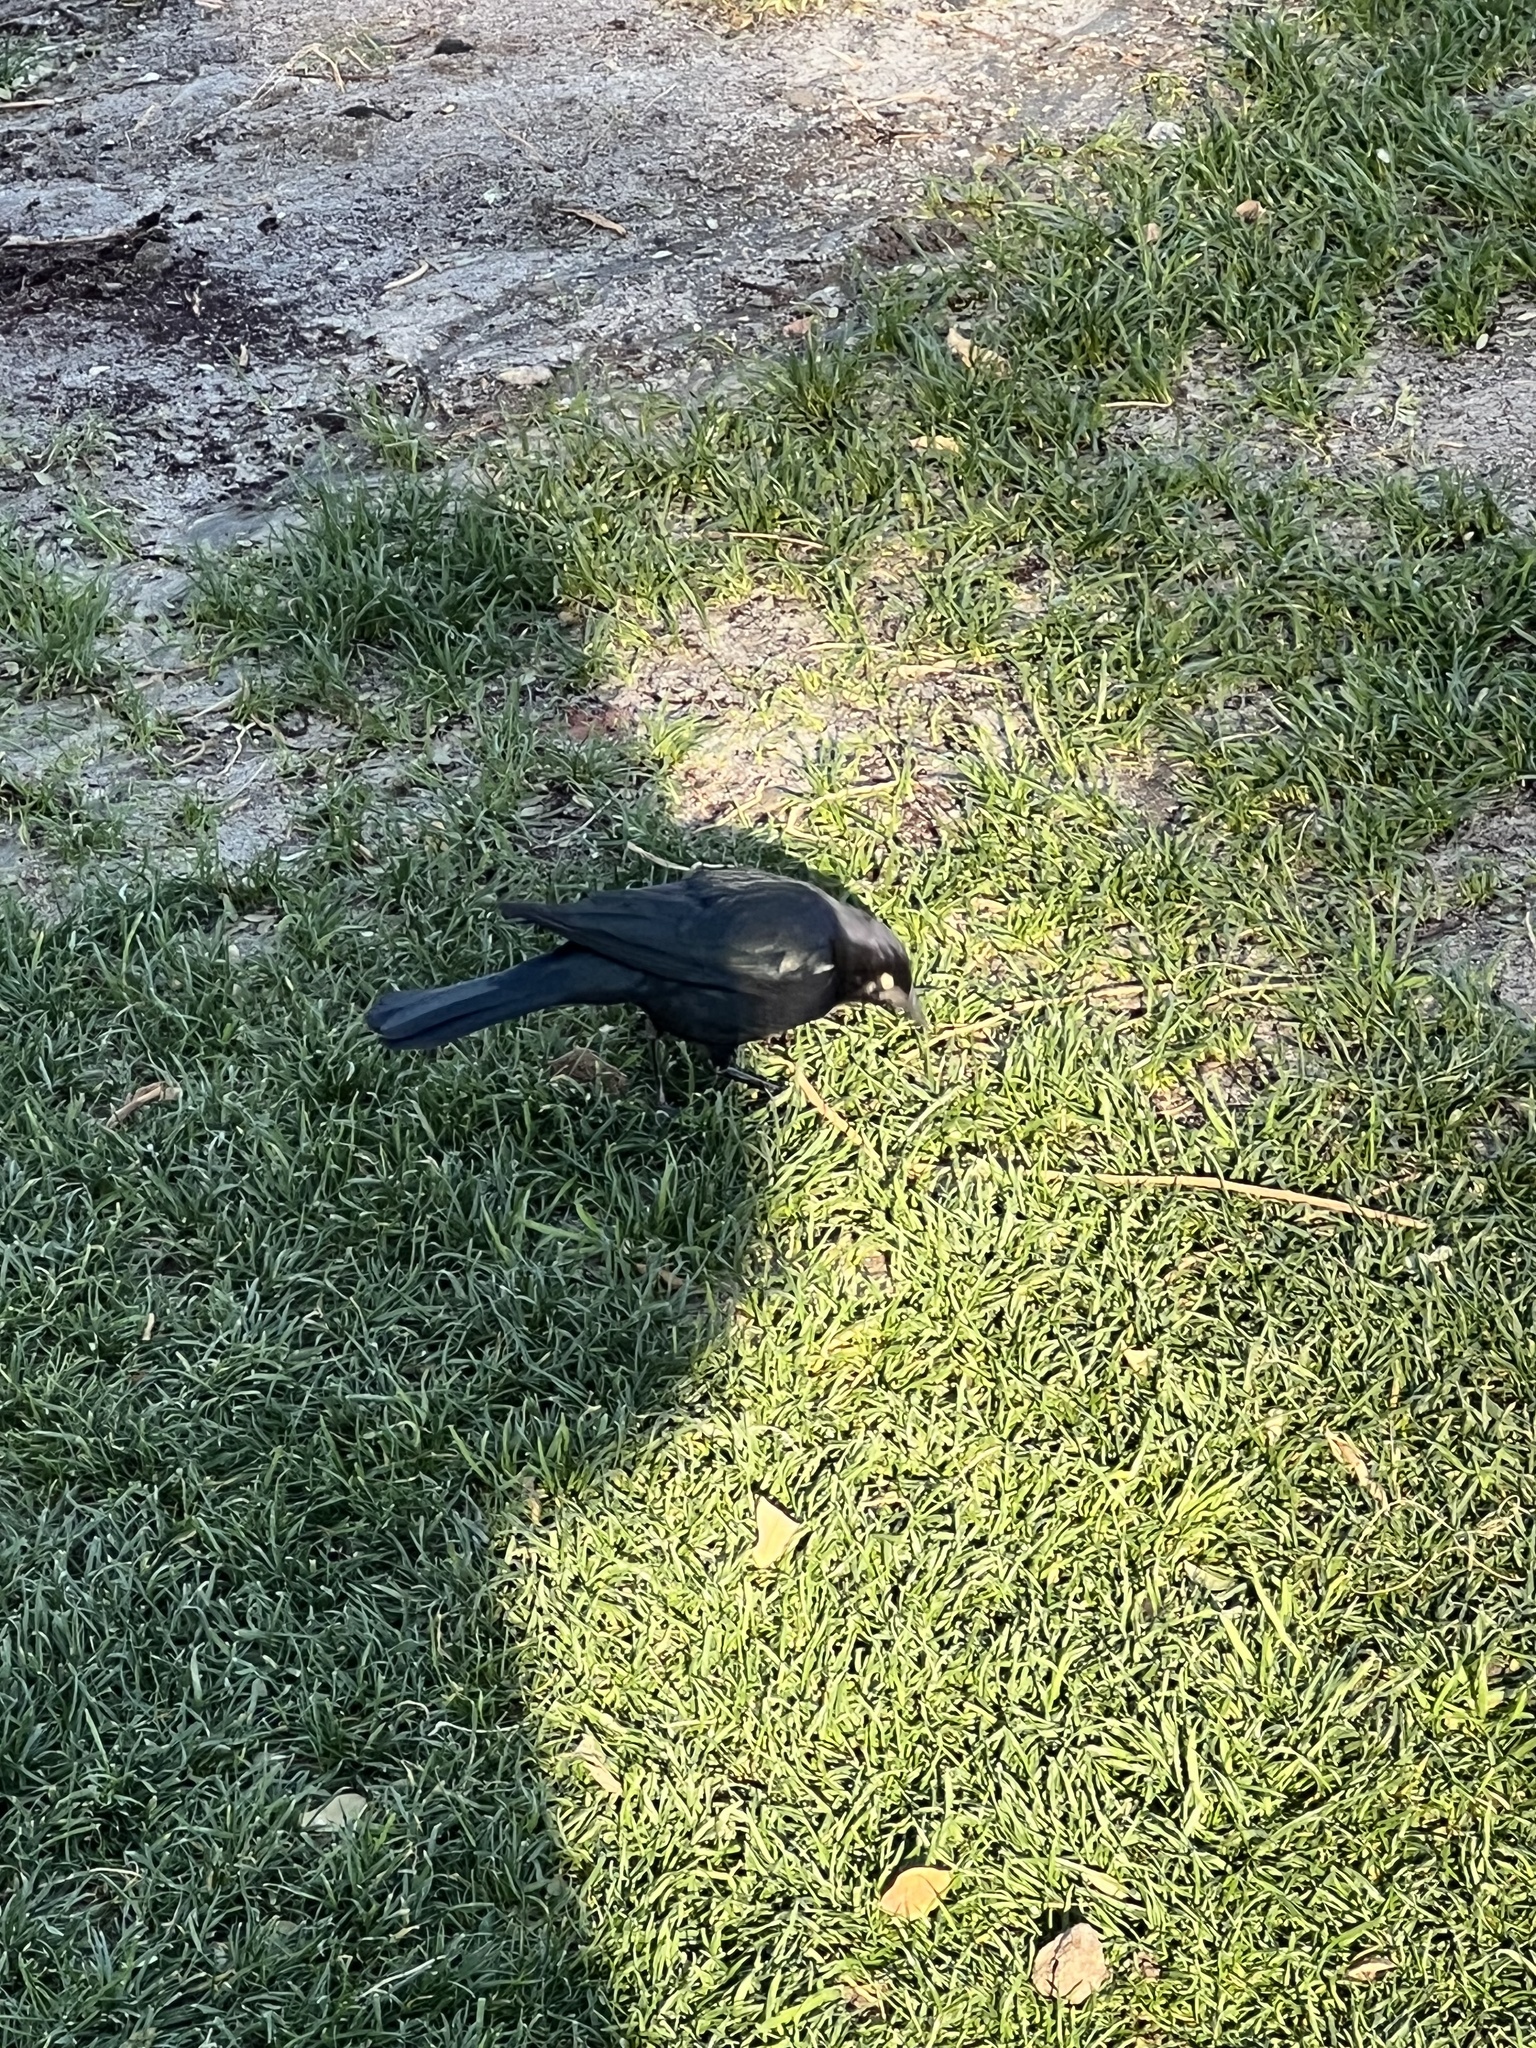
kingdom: Animalia
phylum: Chordata
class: Aves
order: Passeriformes
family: Icteridae
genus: Euphagus
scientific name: Euphagus cyanocephalus
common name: Brewer's blackbird
